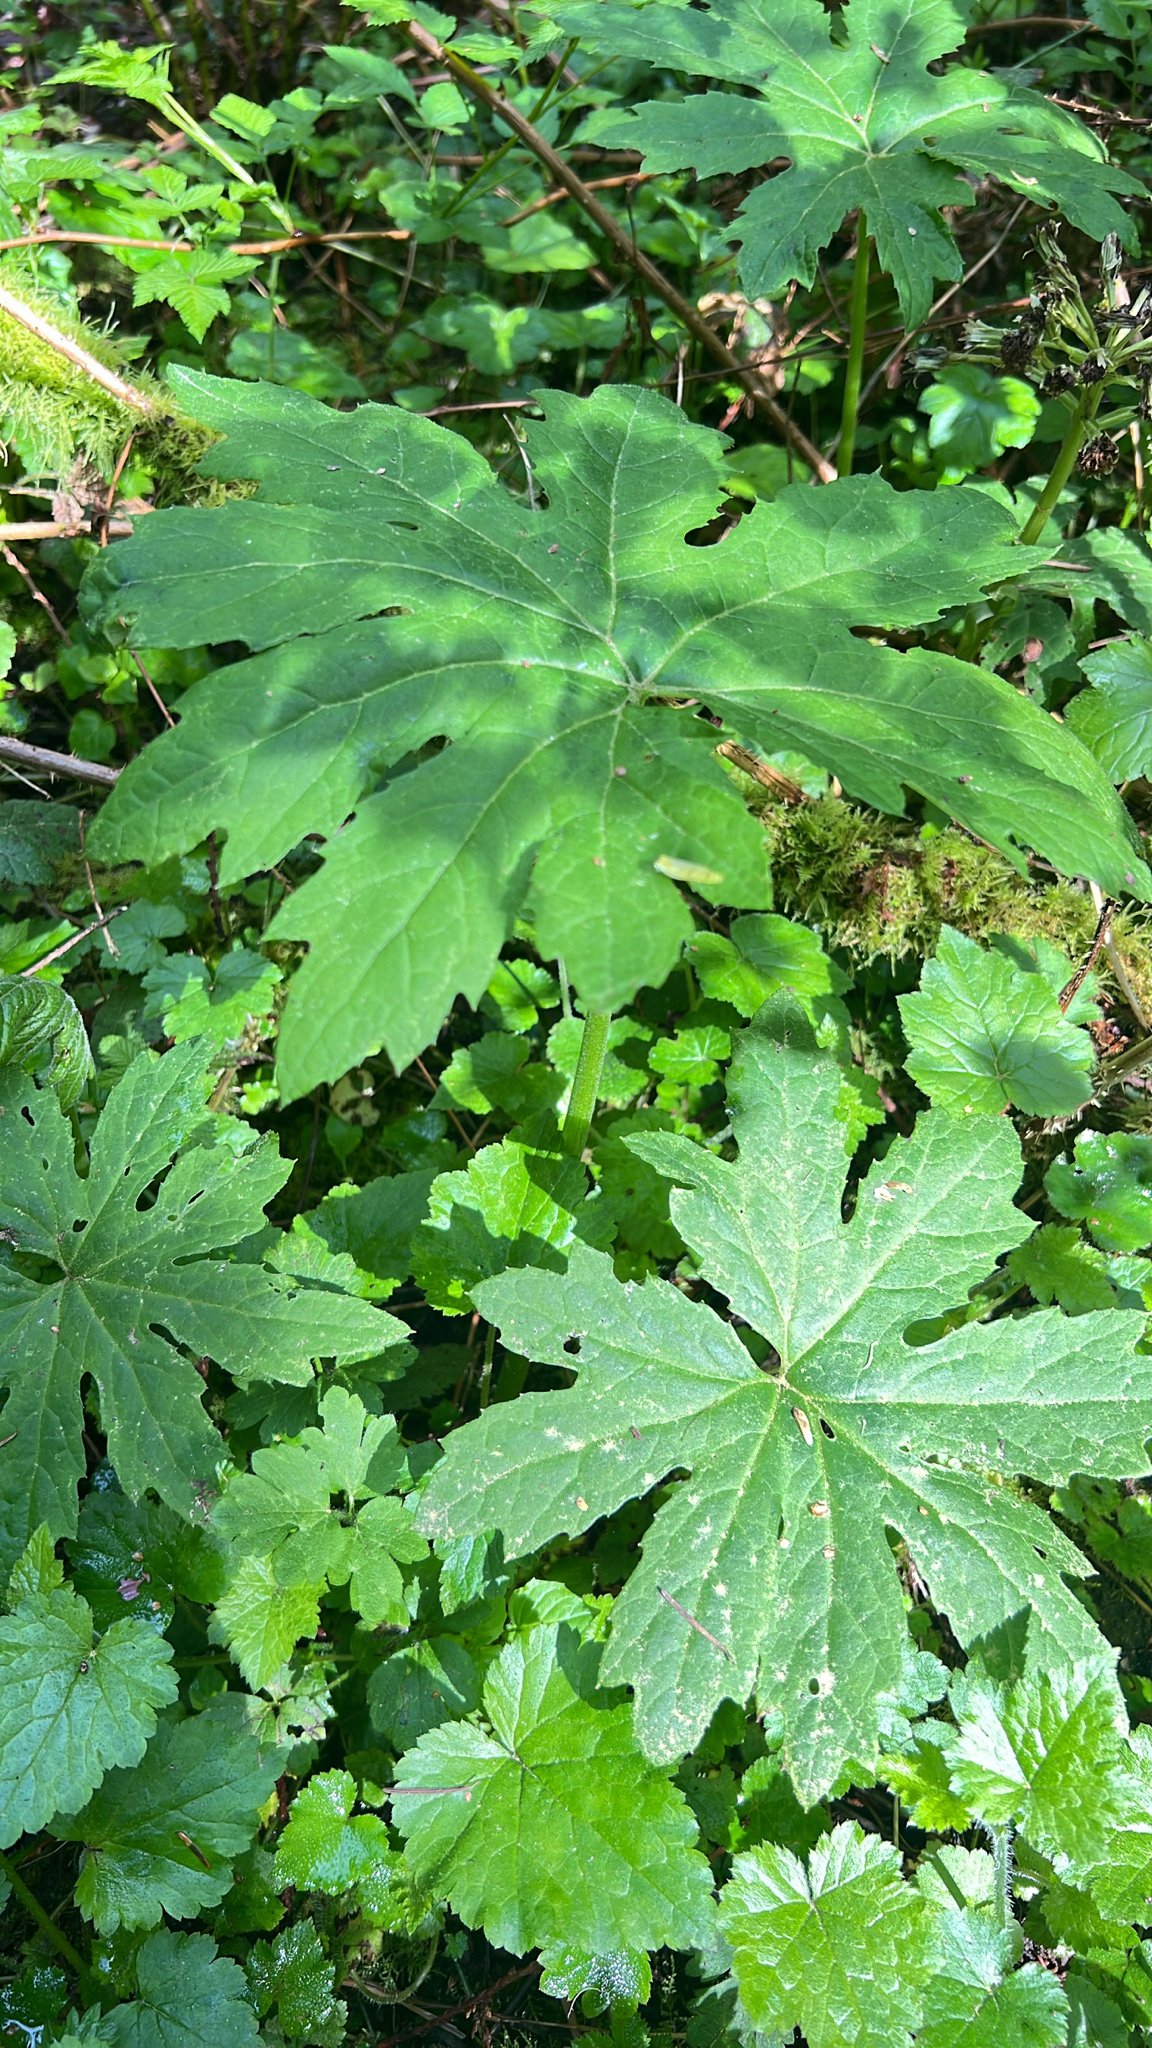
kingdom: Plantae
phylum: Tracheophyta
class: Magnoliopsida
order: Asterales
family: Asteraceae
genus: Petasites
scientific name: Petasites frigidus
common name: Arctic butterbur
